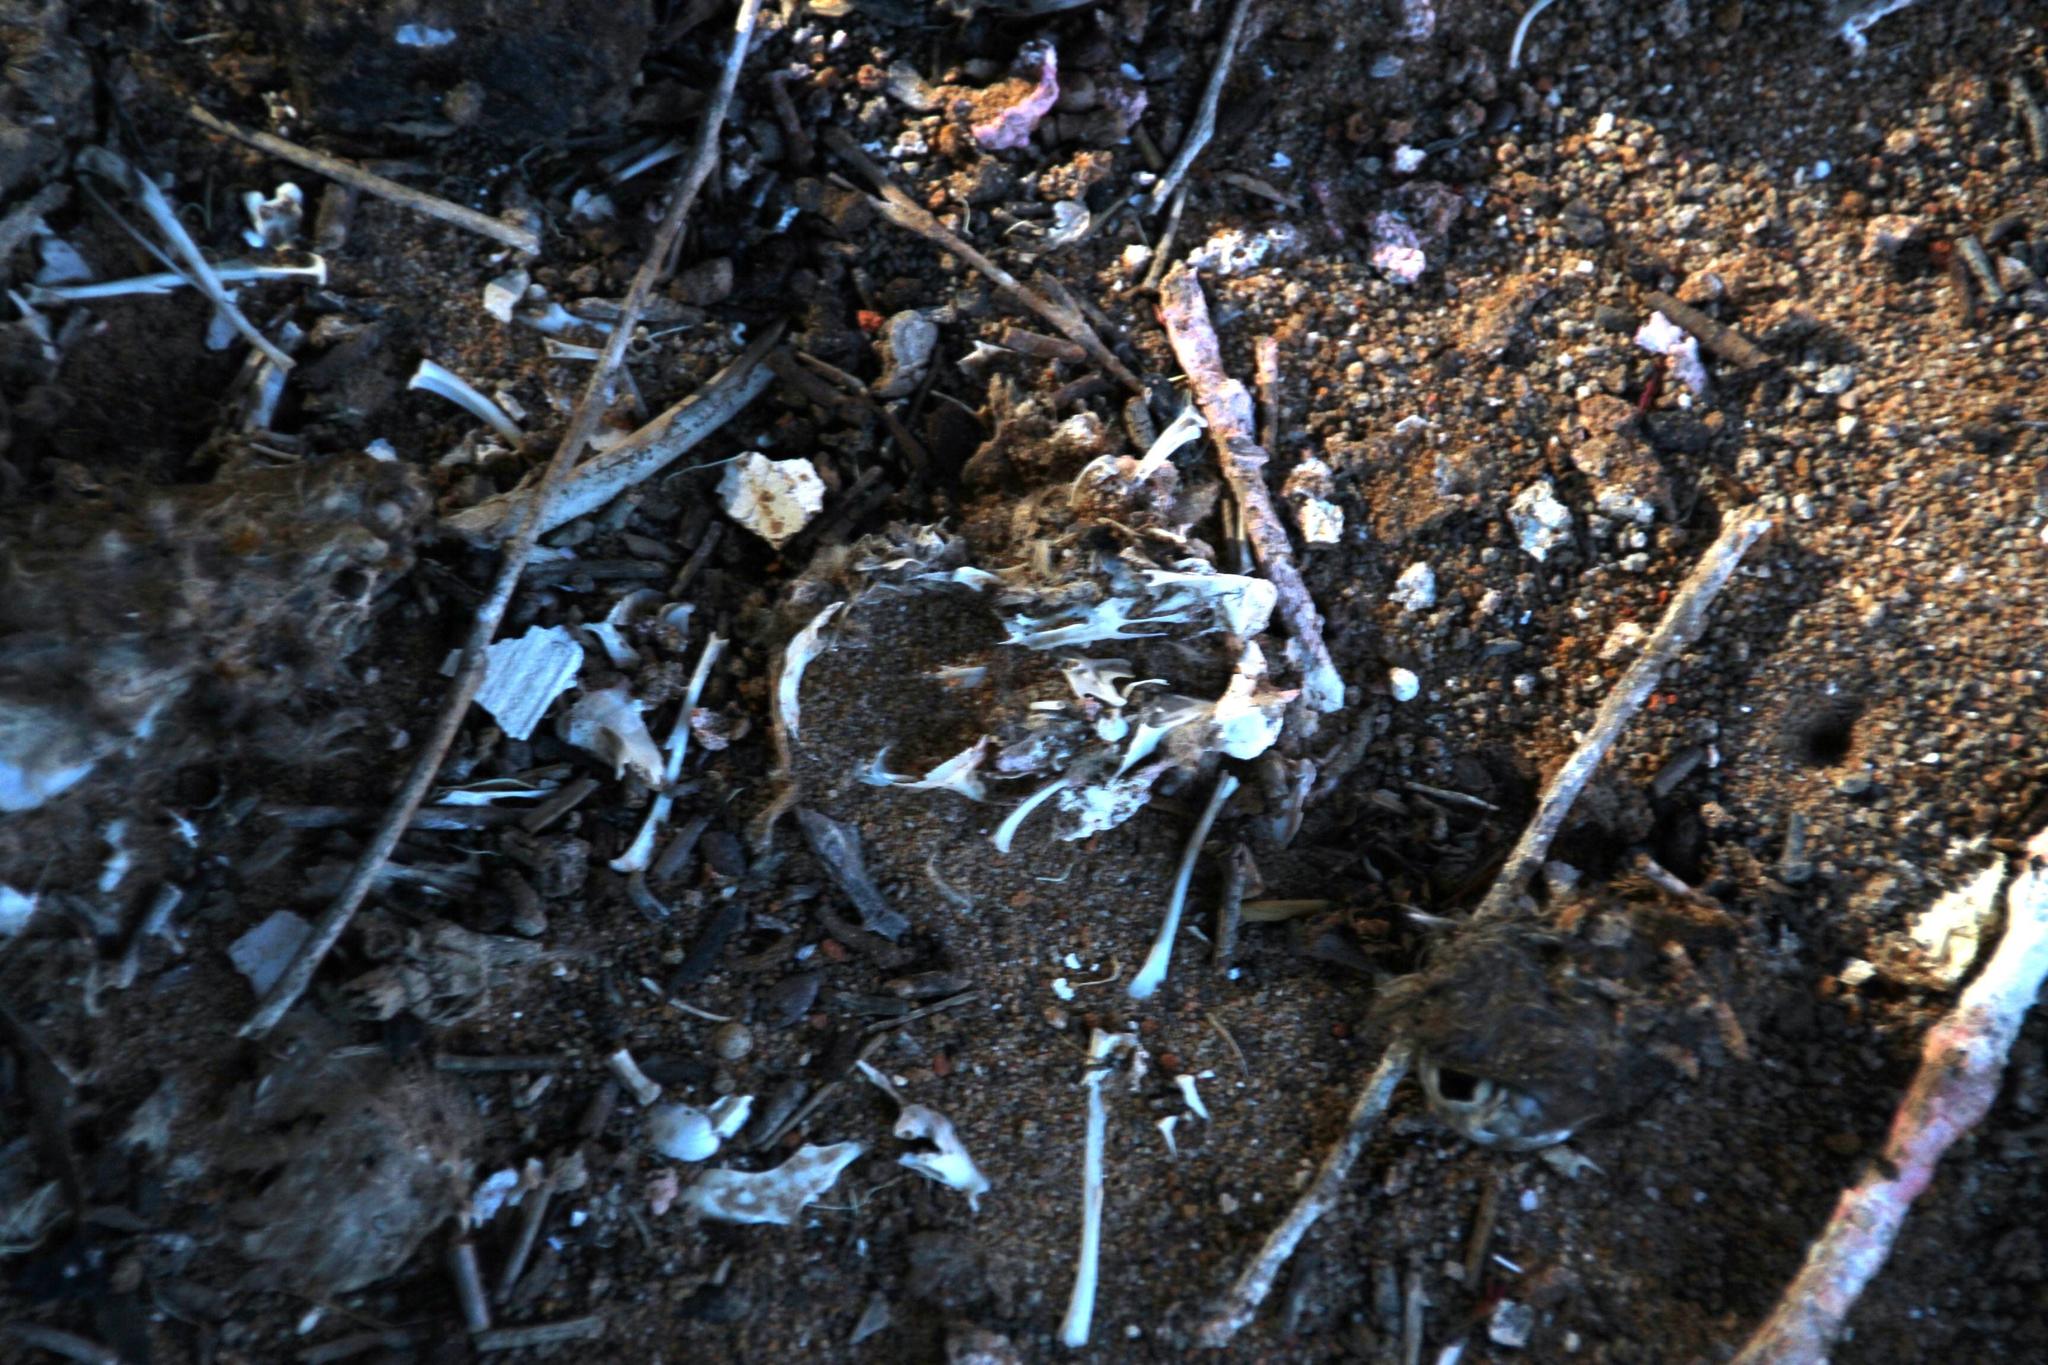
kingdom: Animalia
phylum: Chordata
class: Aves
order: Strigiformes
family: Tytonidae
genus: Tyto
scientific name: Tyto alba
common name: Barn owl
